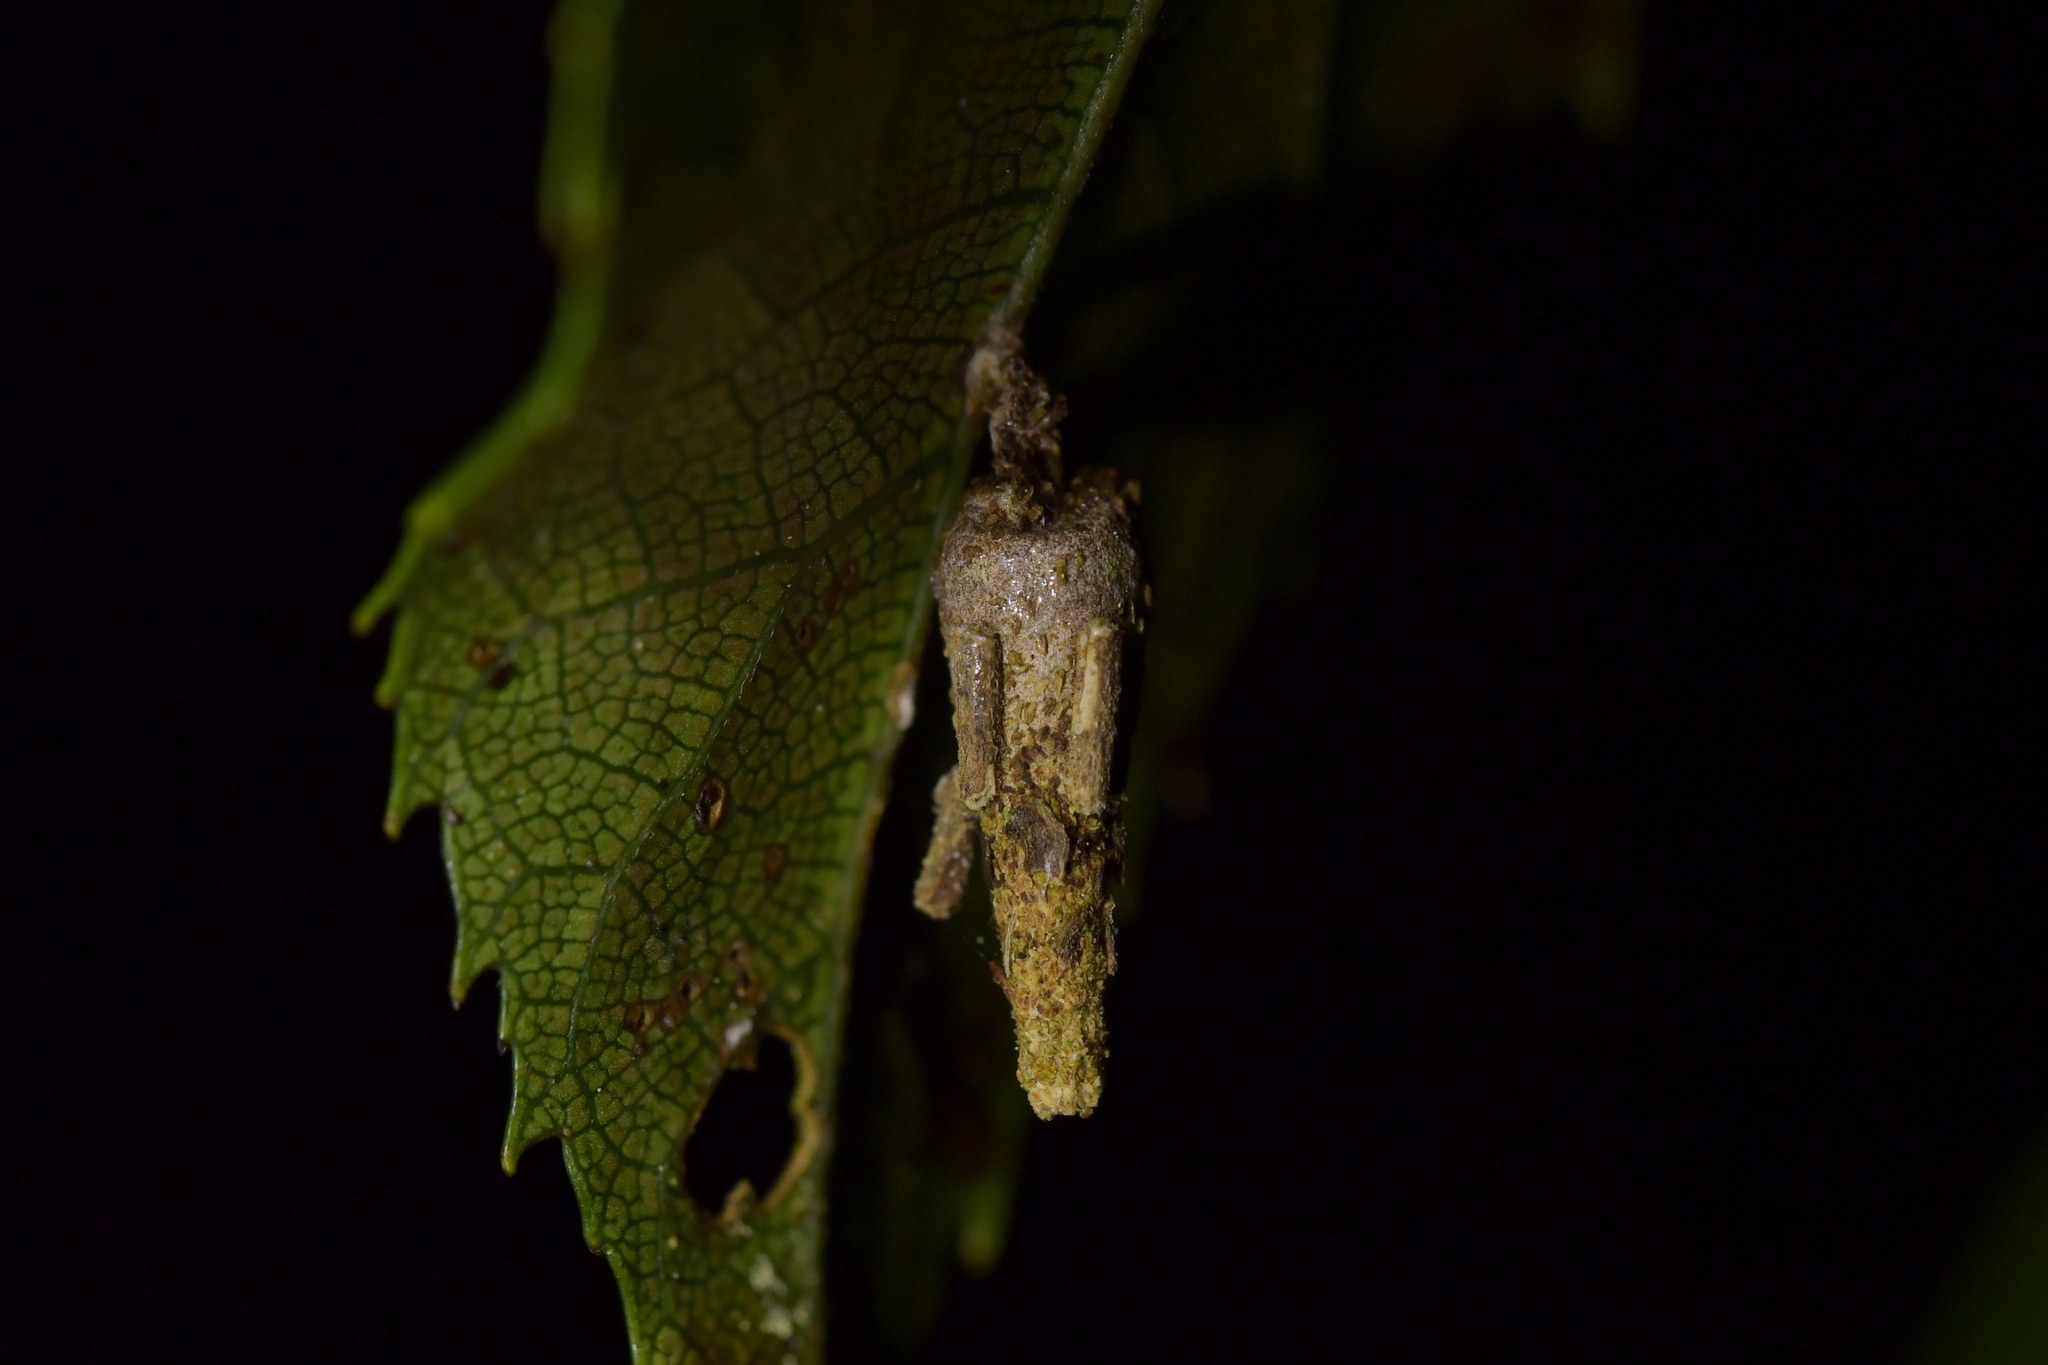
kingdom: Animalia
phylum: Arthropoda
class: Insecta
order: Lepidoptera
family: Psychidae
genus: Liothula
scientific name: Liothula omnivora
